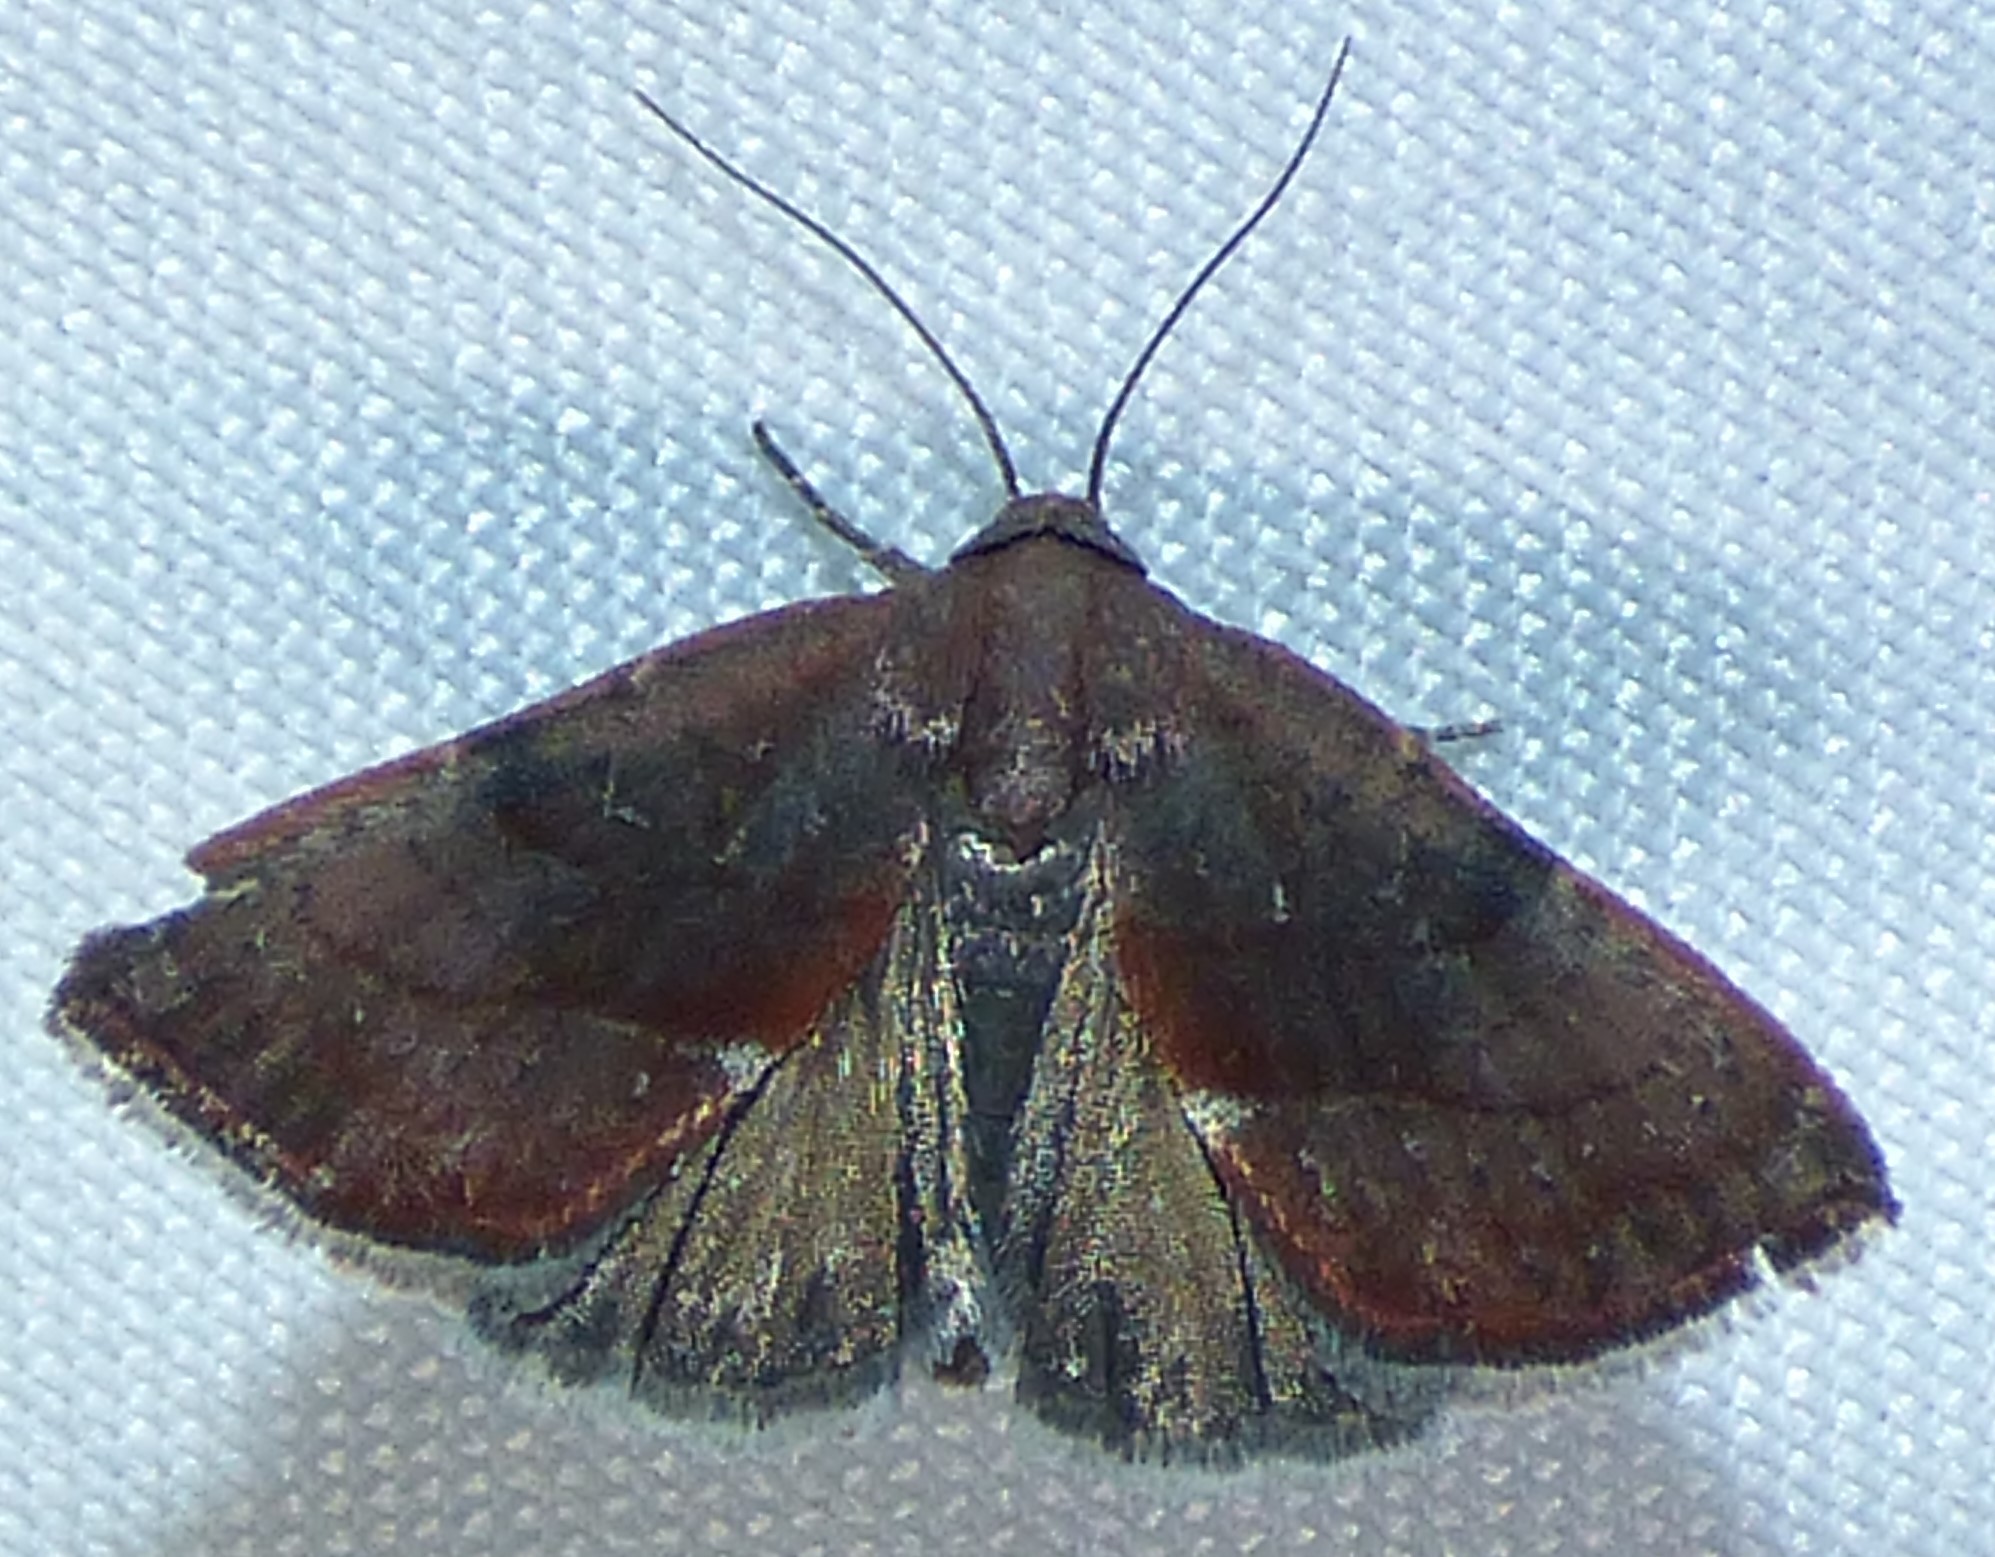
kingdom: Animalia
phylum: Arthropoda
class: Insecta
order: Lepidoptera
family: Noctuidae
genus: Galgula
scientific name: Galgula partita
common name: Wedgeling
